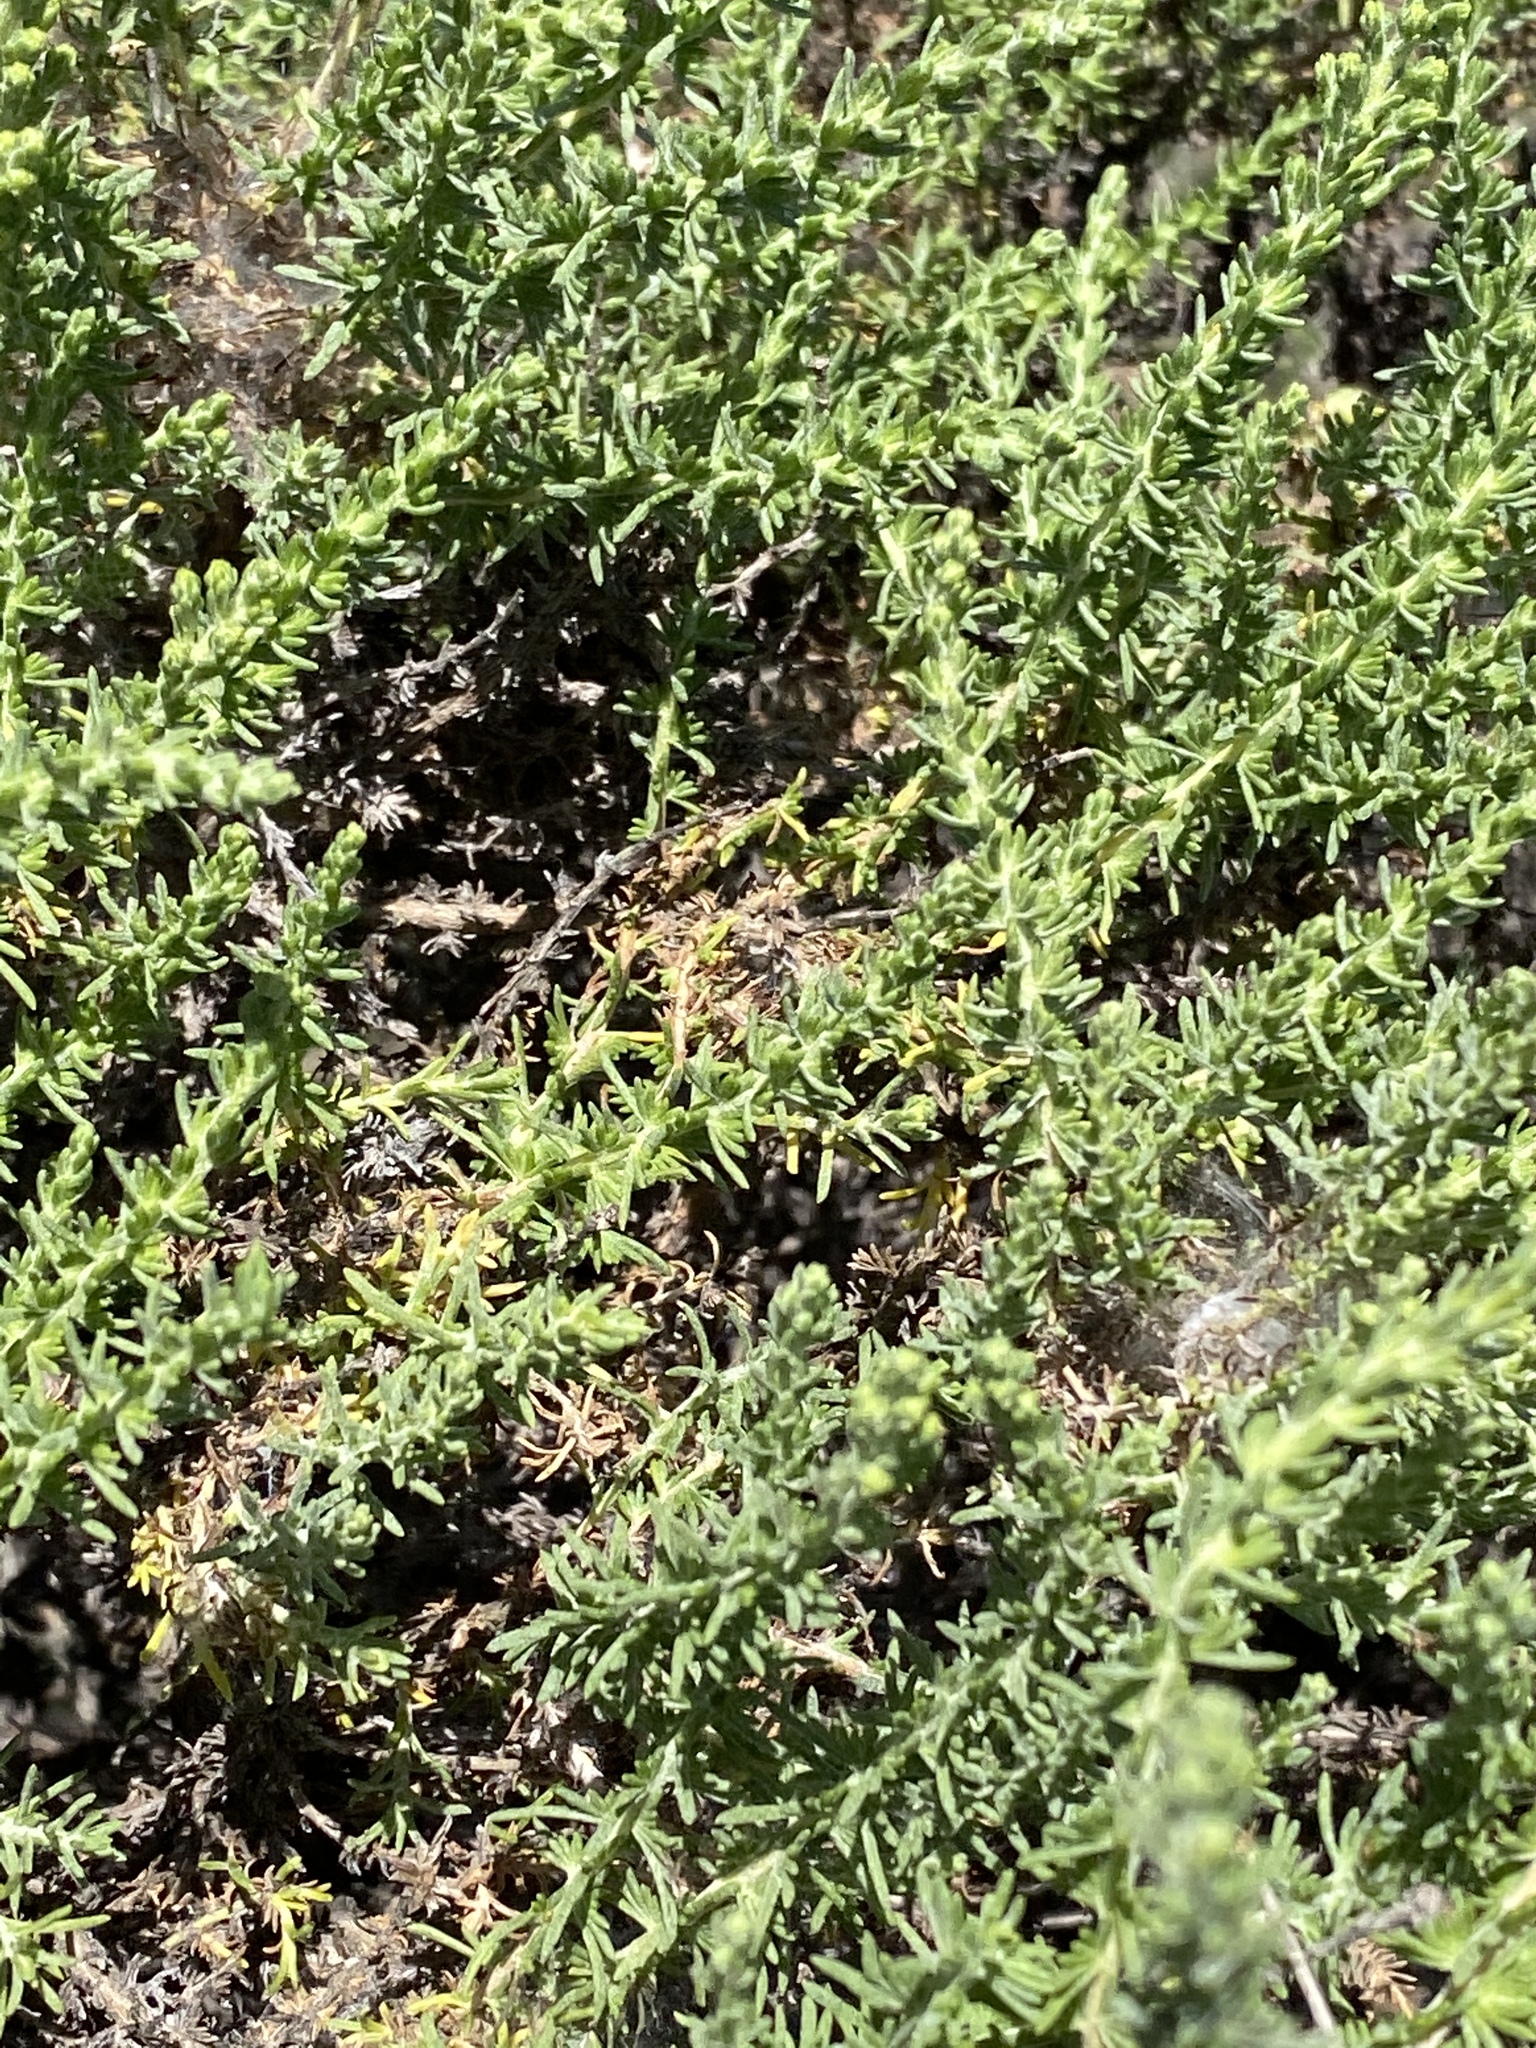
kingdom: Plantae
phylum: Tracheophyta
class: Magnoliopsida
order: Asterales
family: Asteraceae
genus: Ericameria
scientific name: Ericameria ericoides
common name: California goldenbush
